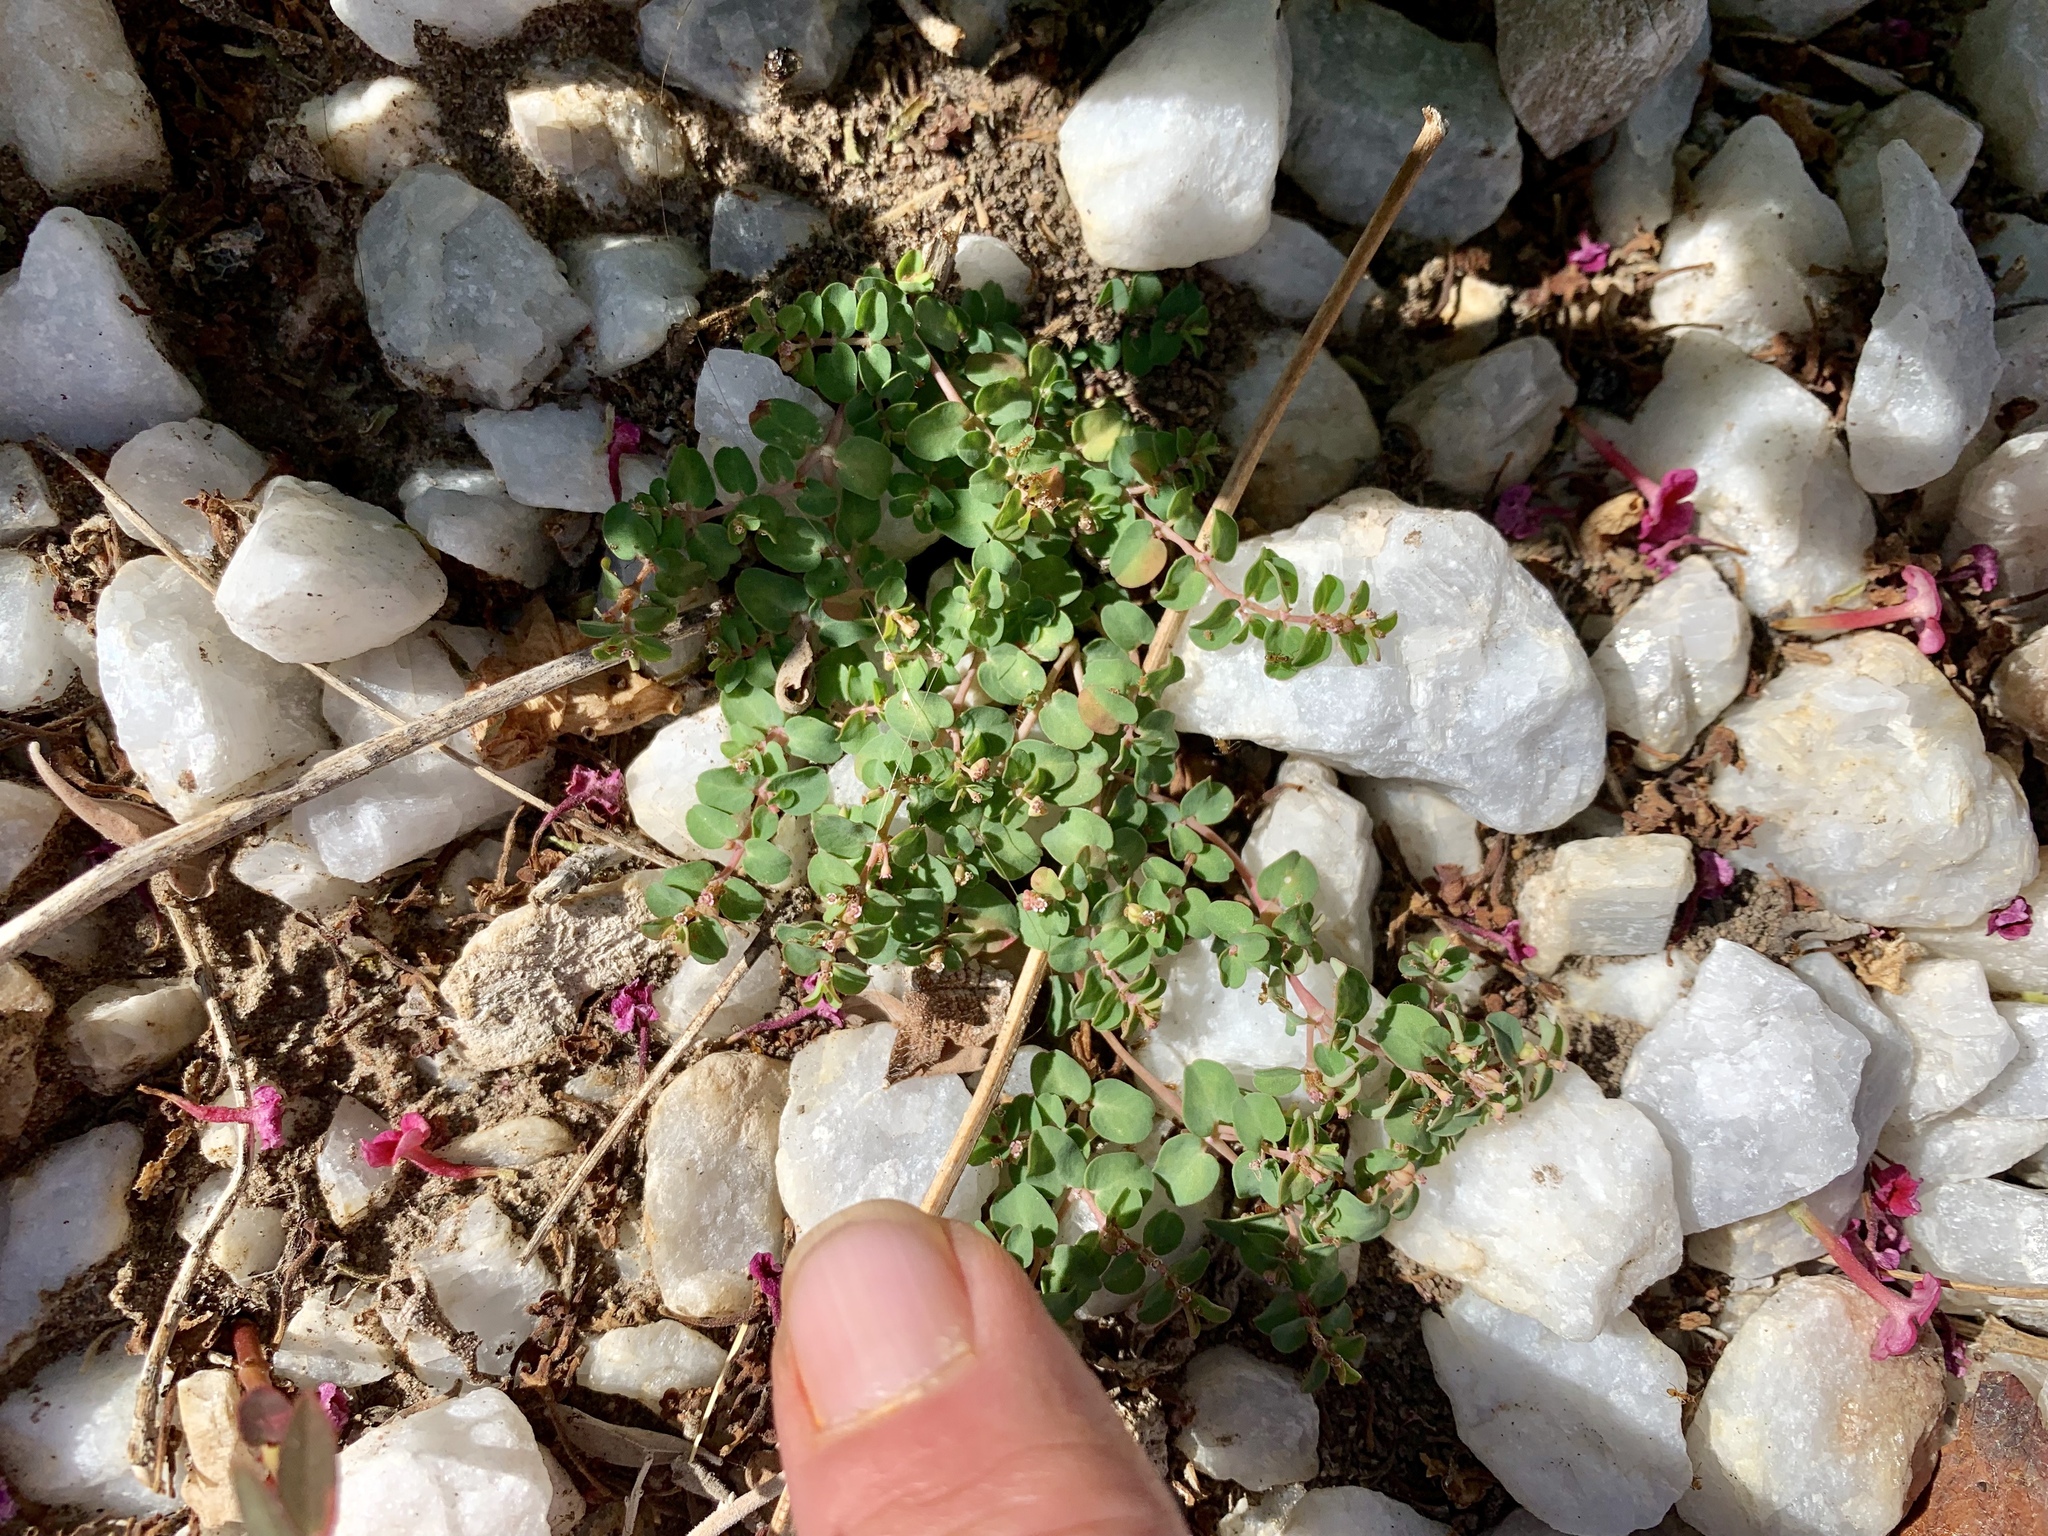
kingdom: Plantae
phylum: Tracheophyta
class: Magnoliopsida
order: Malpighiales
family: Euphorbiaceae
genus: Euphorbia
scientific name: Euphorbia serpens
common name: Matted sandmat
